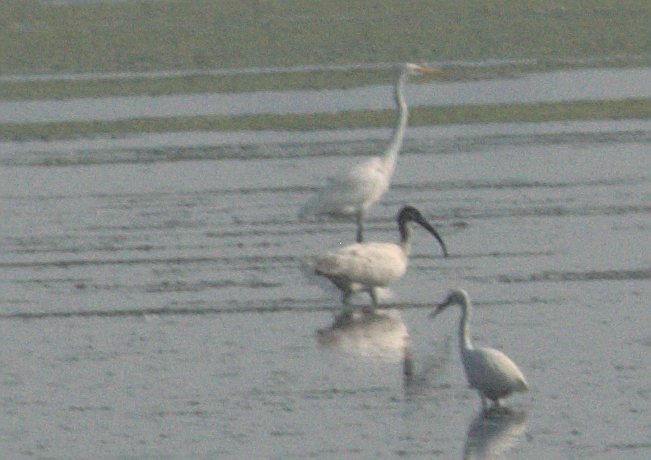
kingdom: Animalia
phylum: Chordata
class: Aves
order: Pelecaniformes
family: Threskiornithidae
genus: Threskiornis
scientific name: Threskiornis melanocephalus
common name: Black-headed ibis
